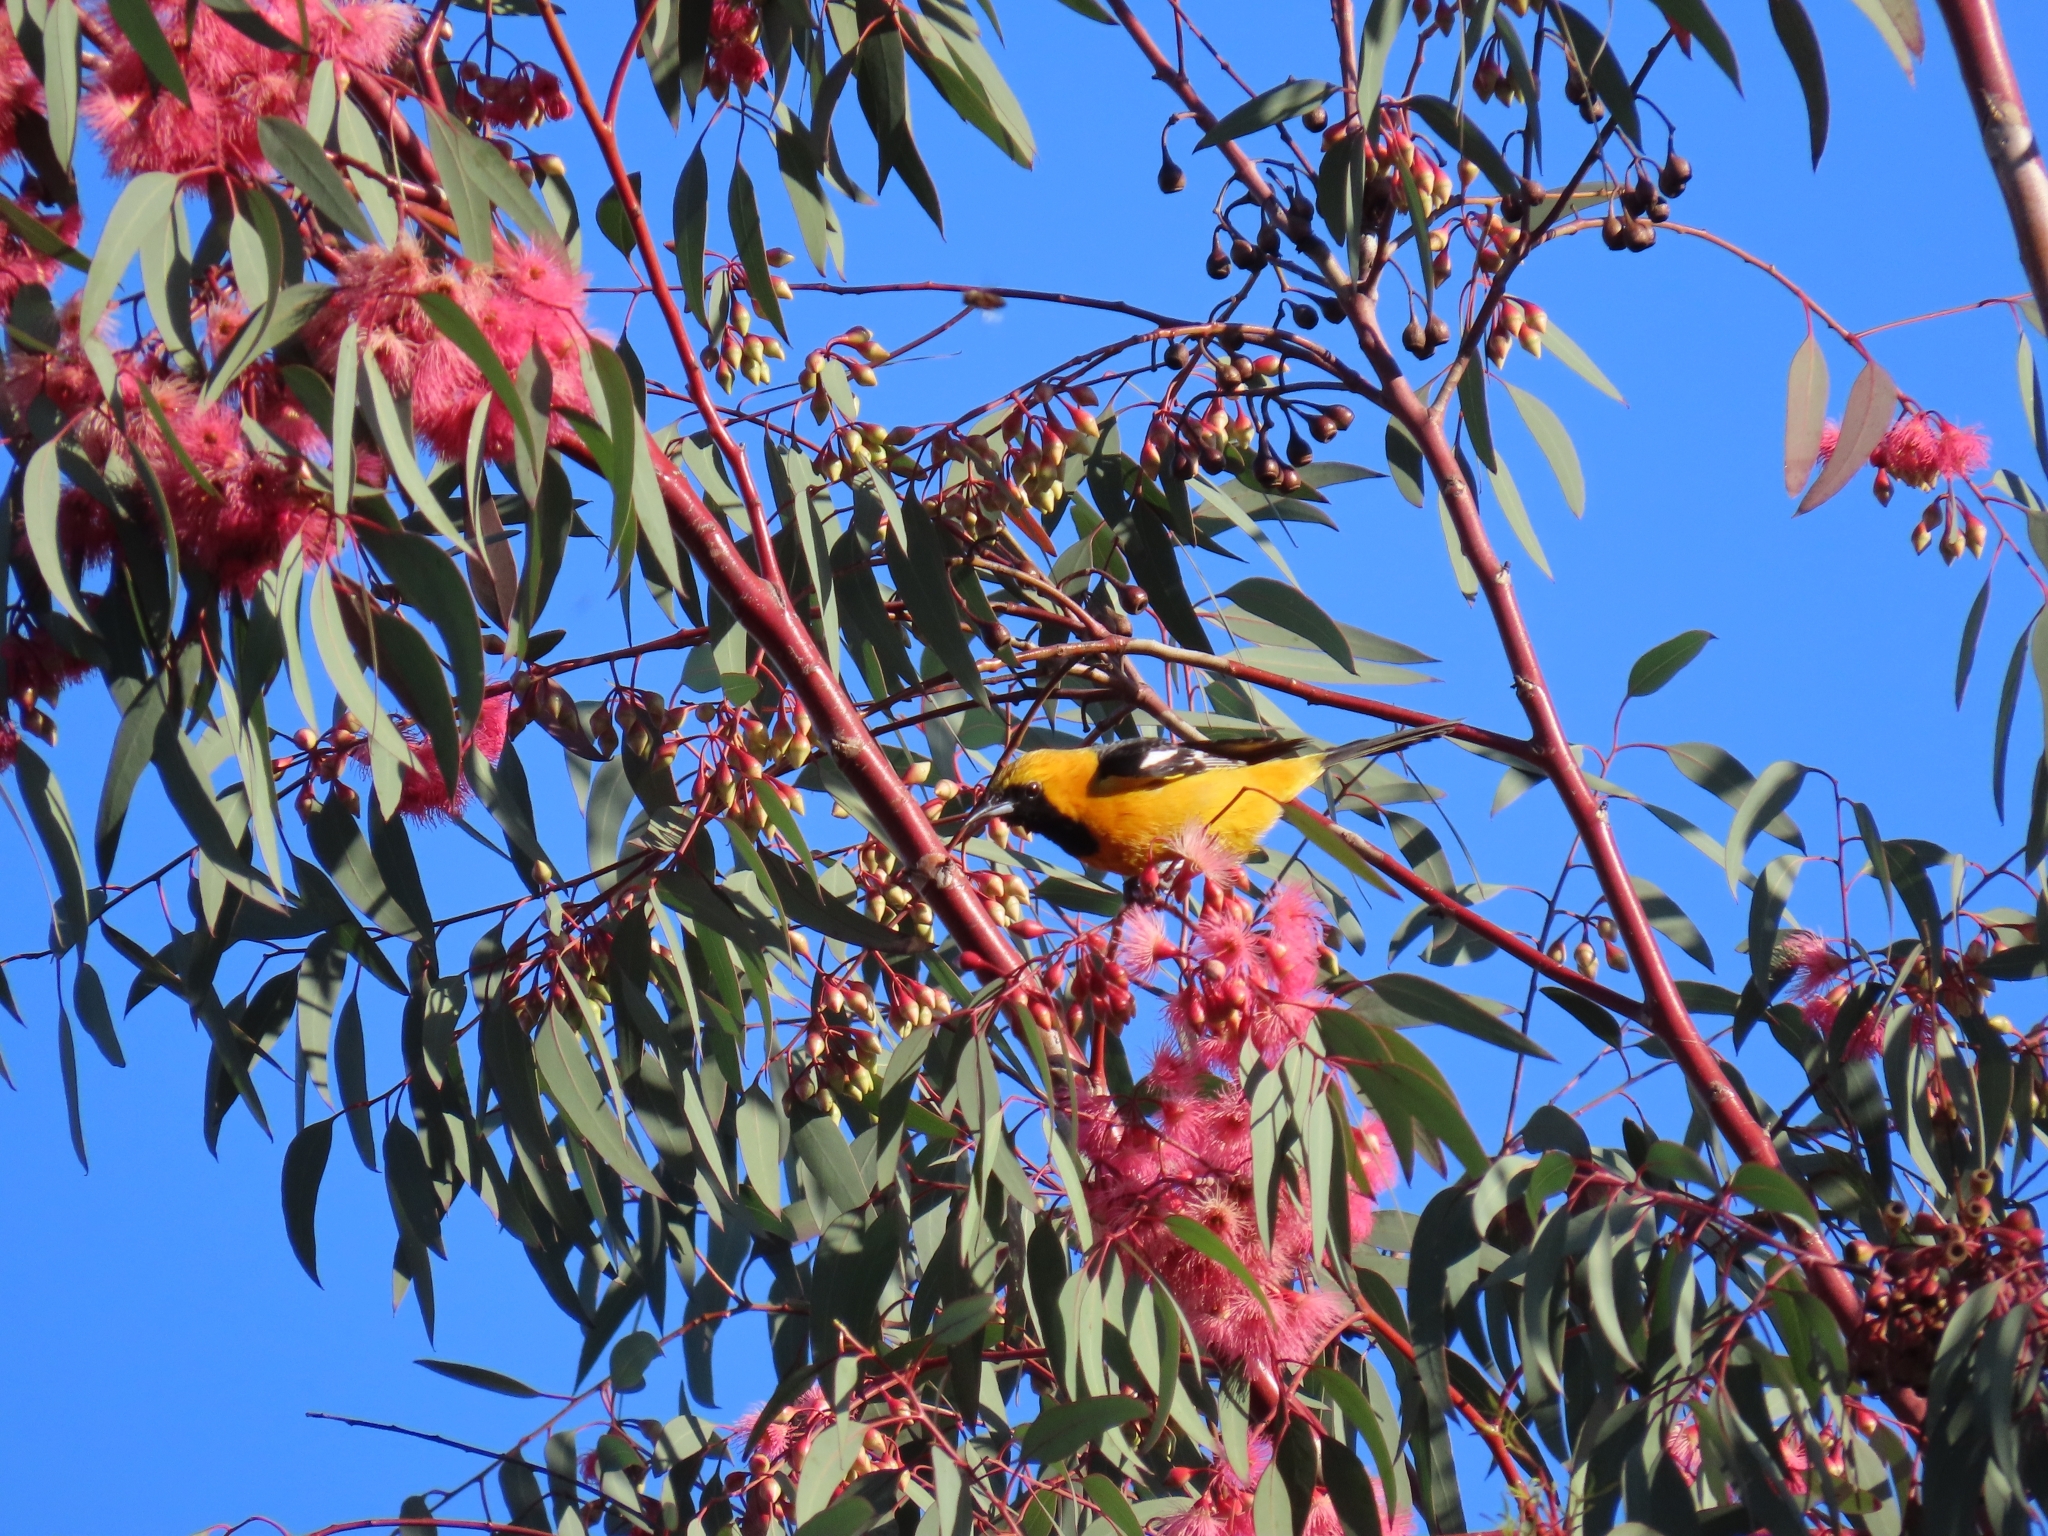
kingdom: Animalia
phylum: Chordata
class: Aves
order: Passeriformes
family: Icteridae
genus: Icterus
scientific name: Icterus cucullatus
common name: Hooded oriole
